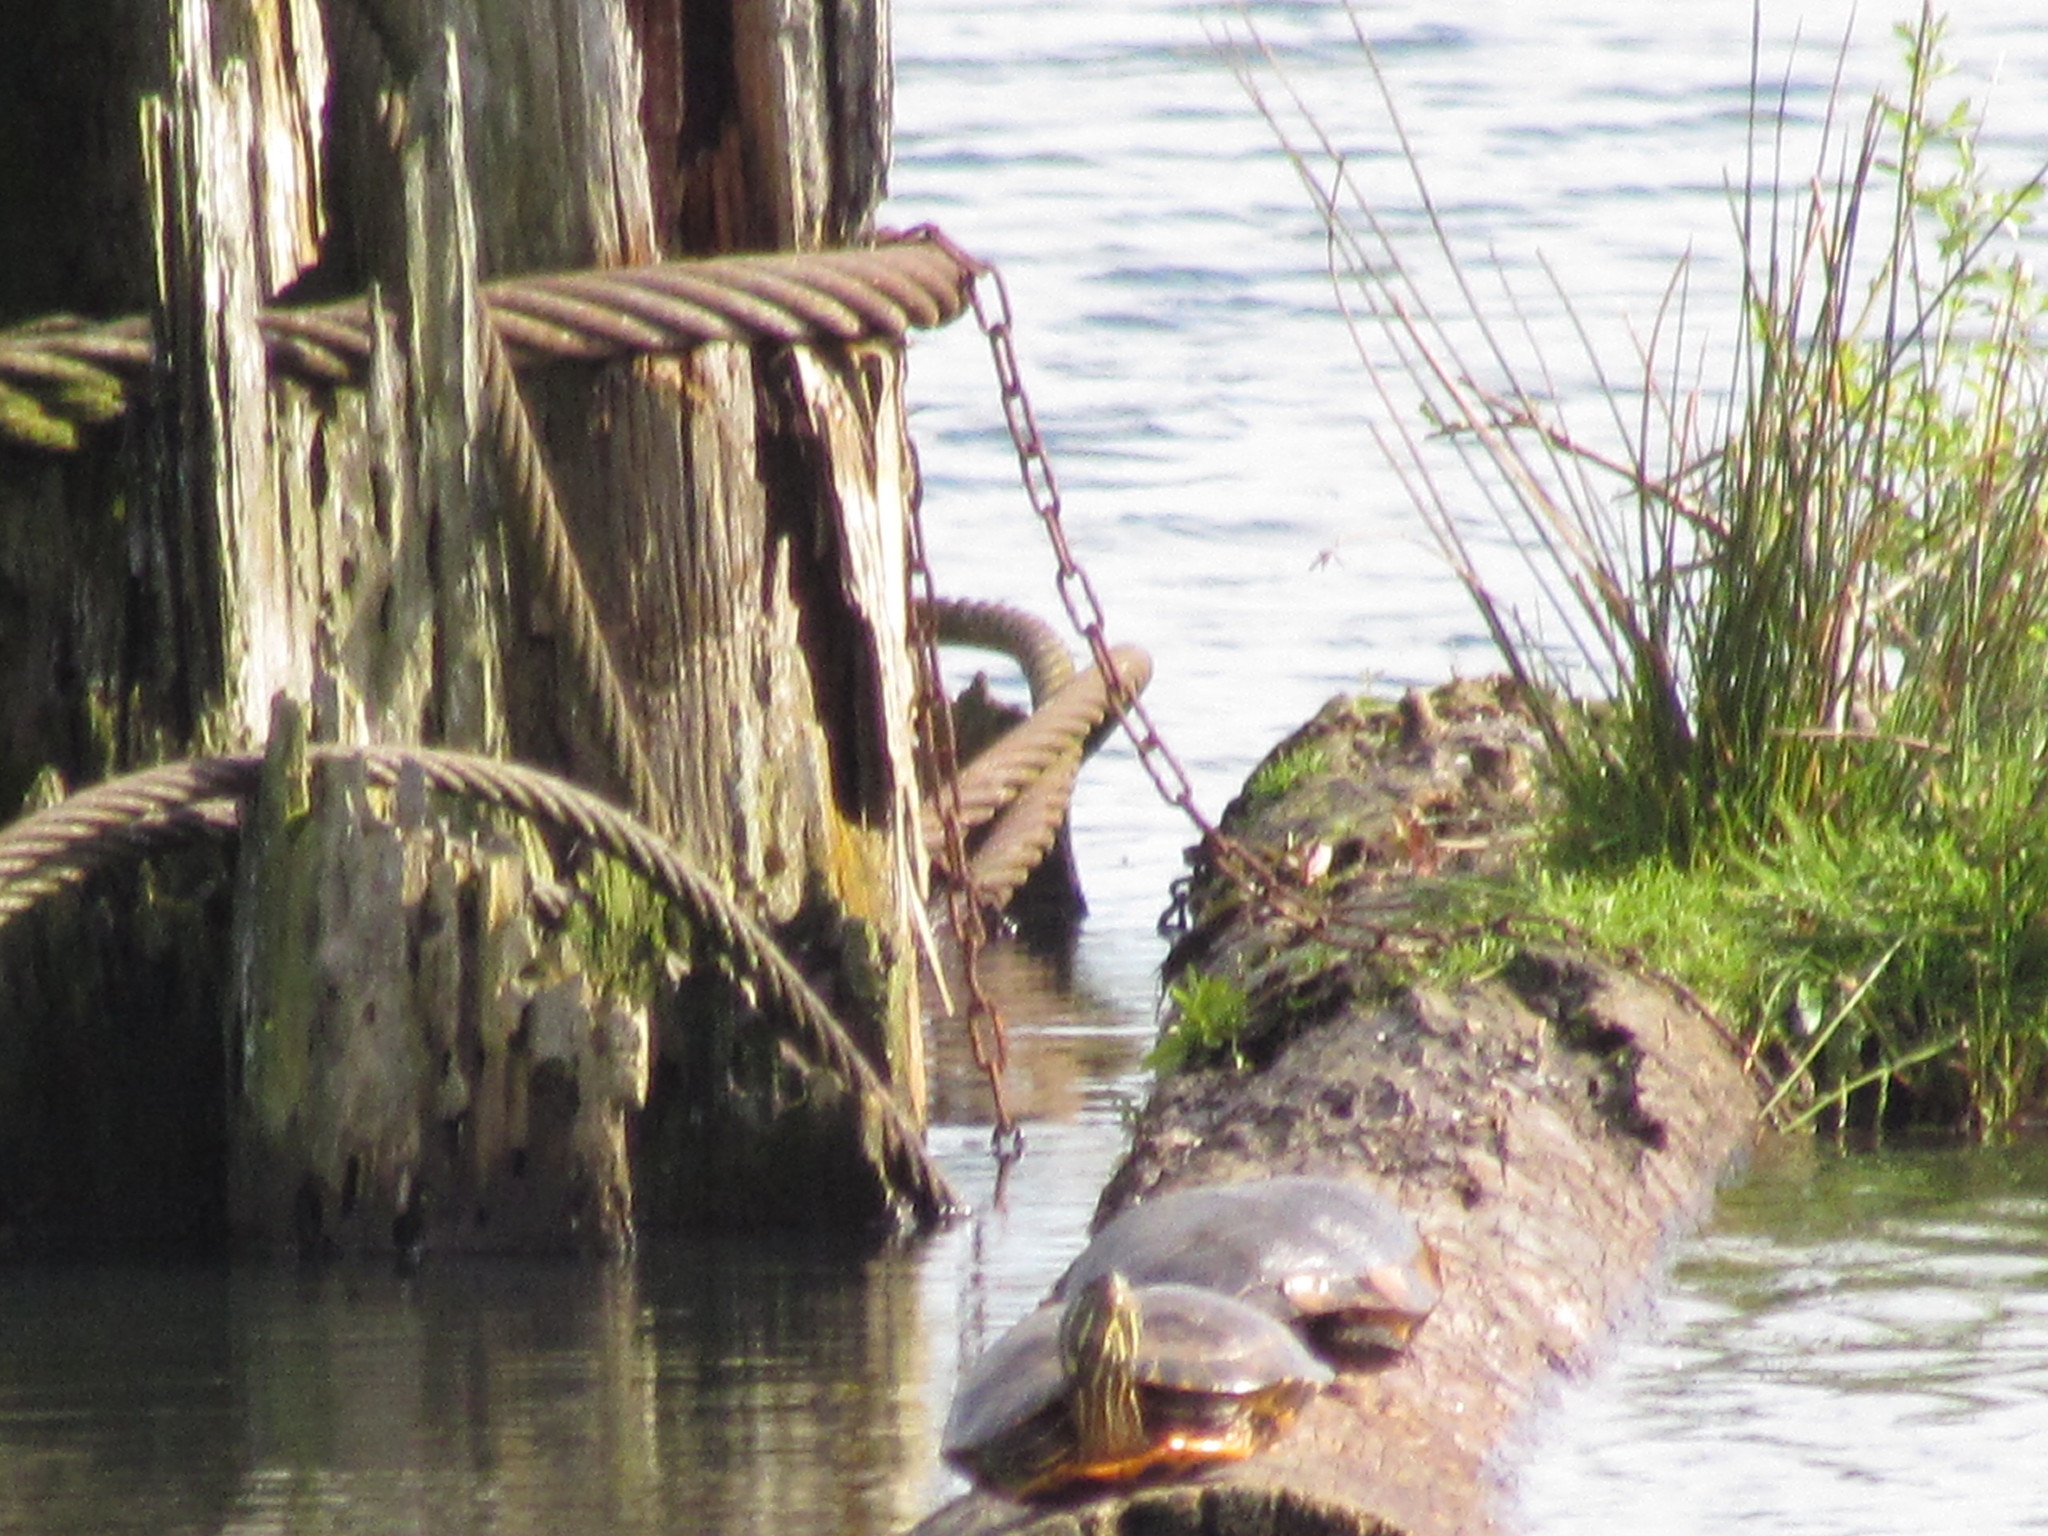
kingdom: Animalia
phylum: Chordata
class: Testudines
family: Emydidae
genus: Trachemys
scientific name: Trachemys scripta
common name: Slider
